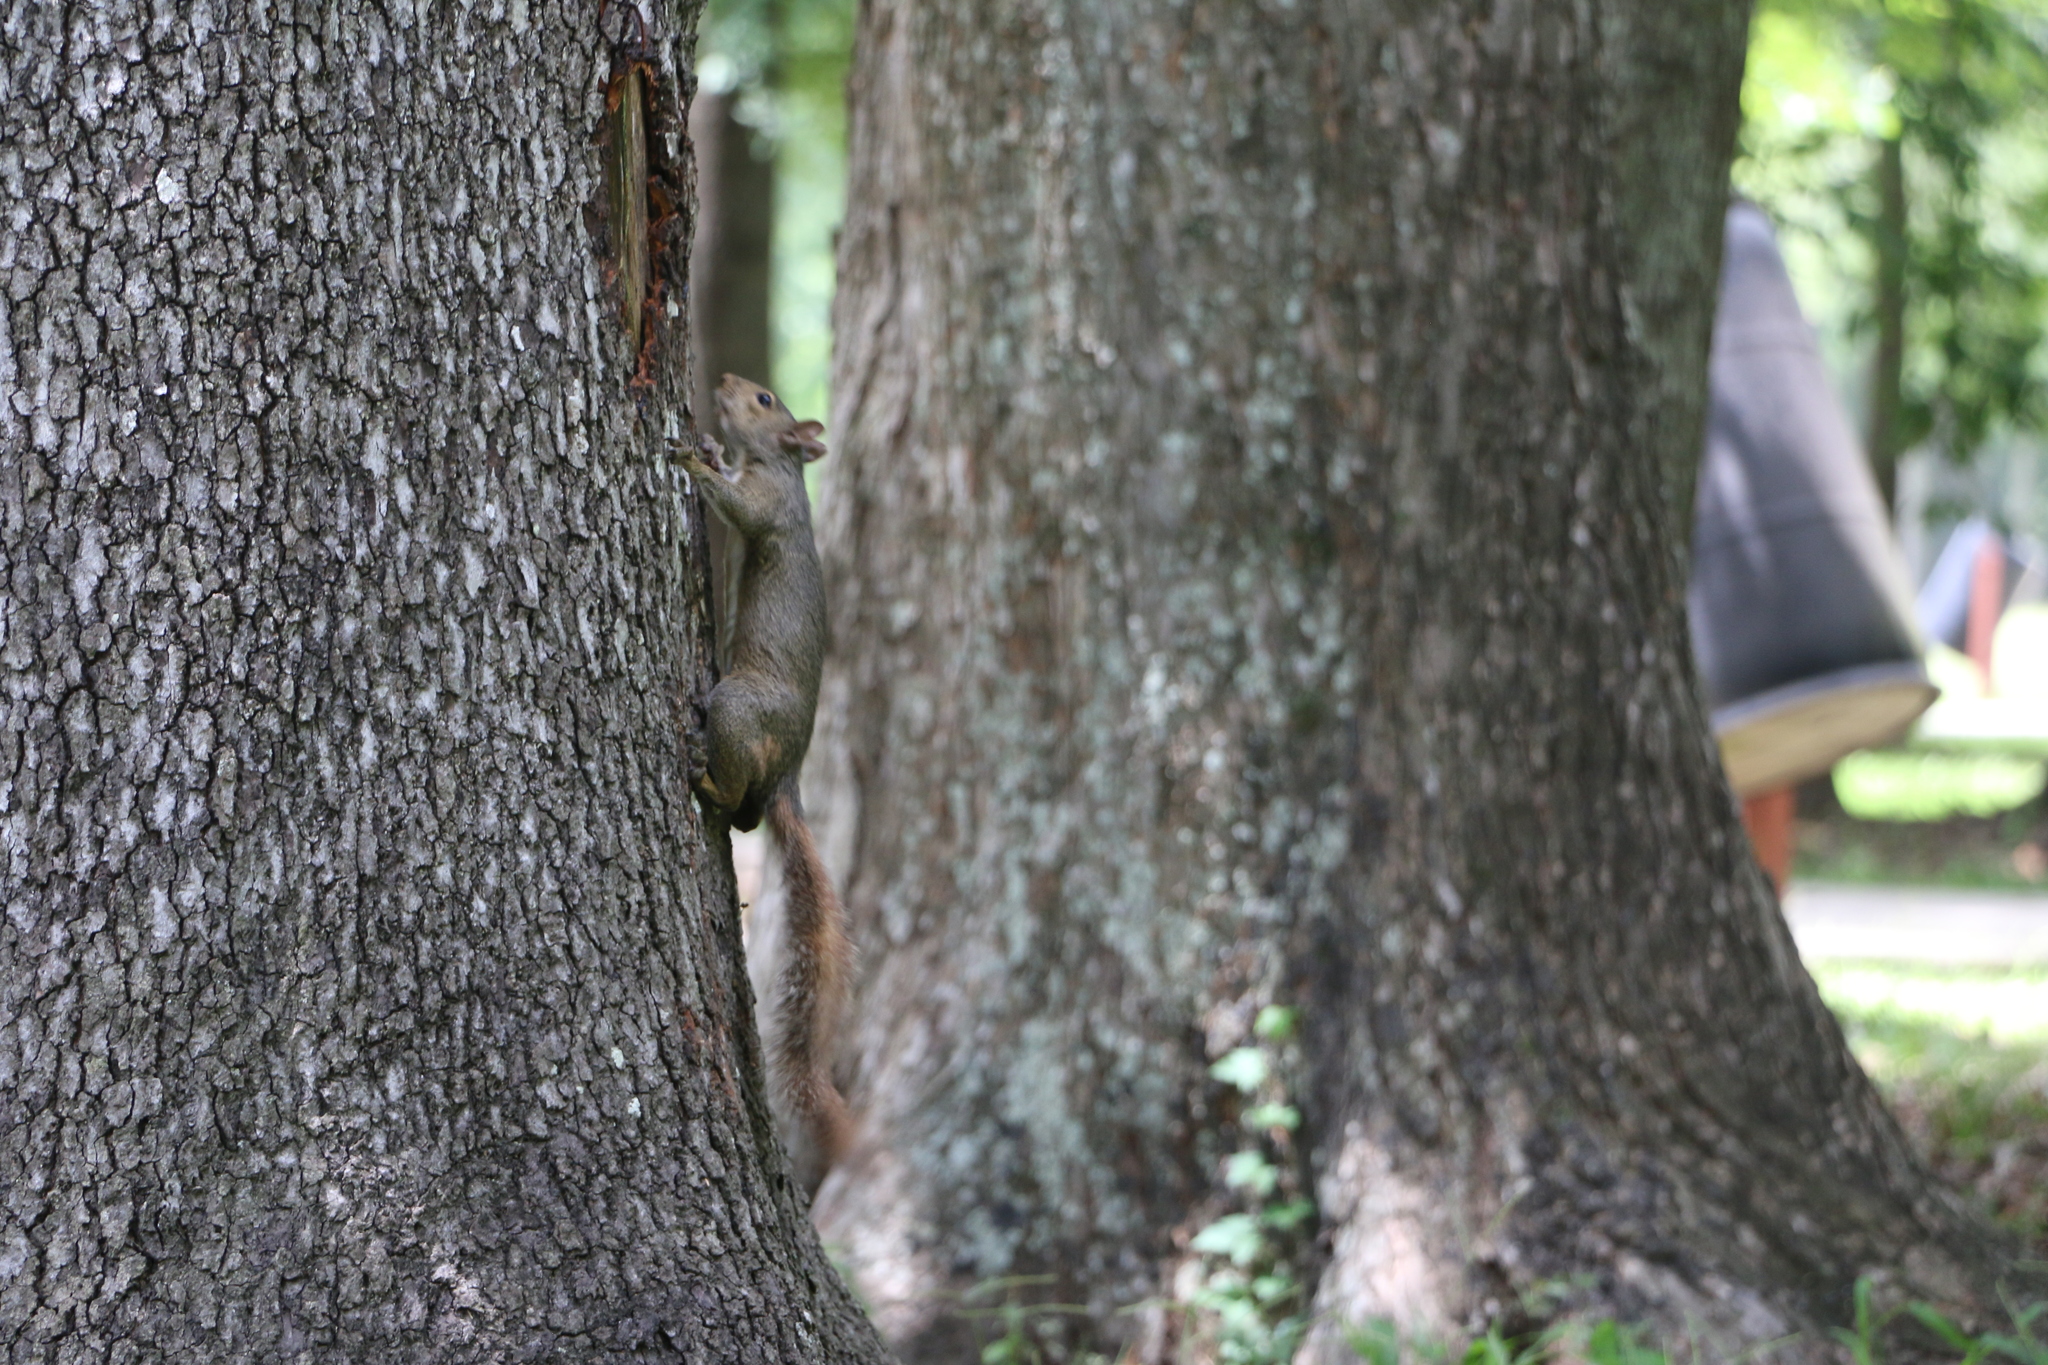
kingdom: Animalia
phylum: Chordata
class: Mammalia
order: Rodentia
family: Sciuridae
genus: Sciurus
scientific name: Sciurus carolinensis
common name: Eastern gray squirrel
